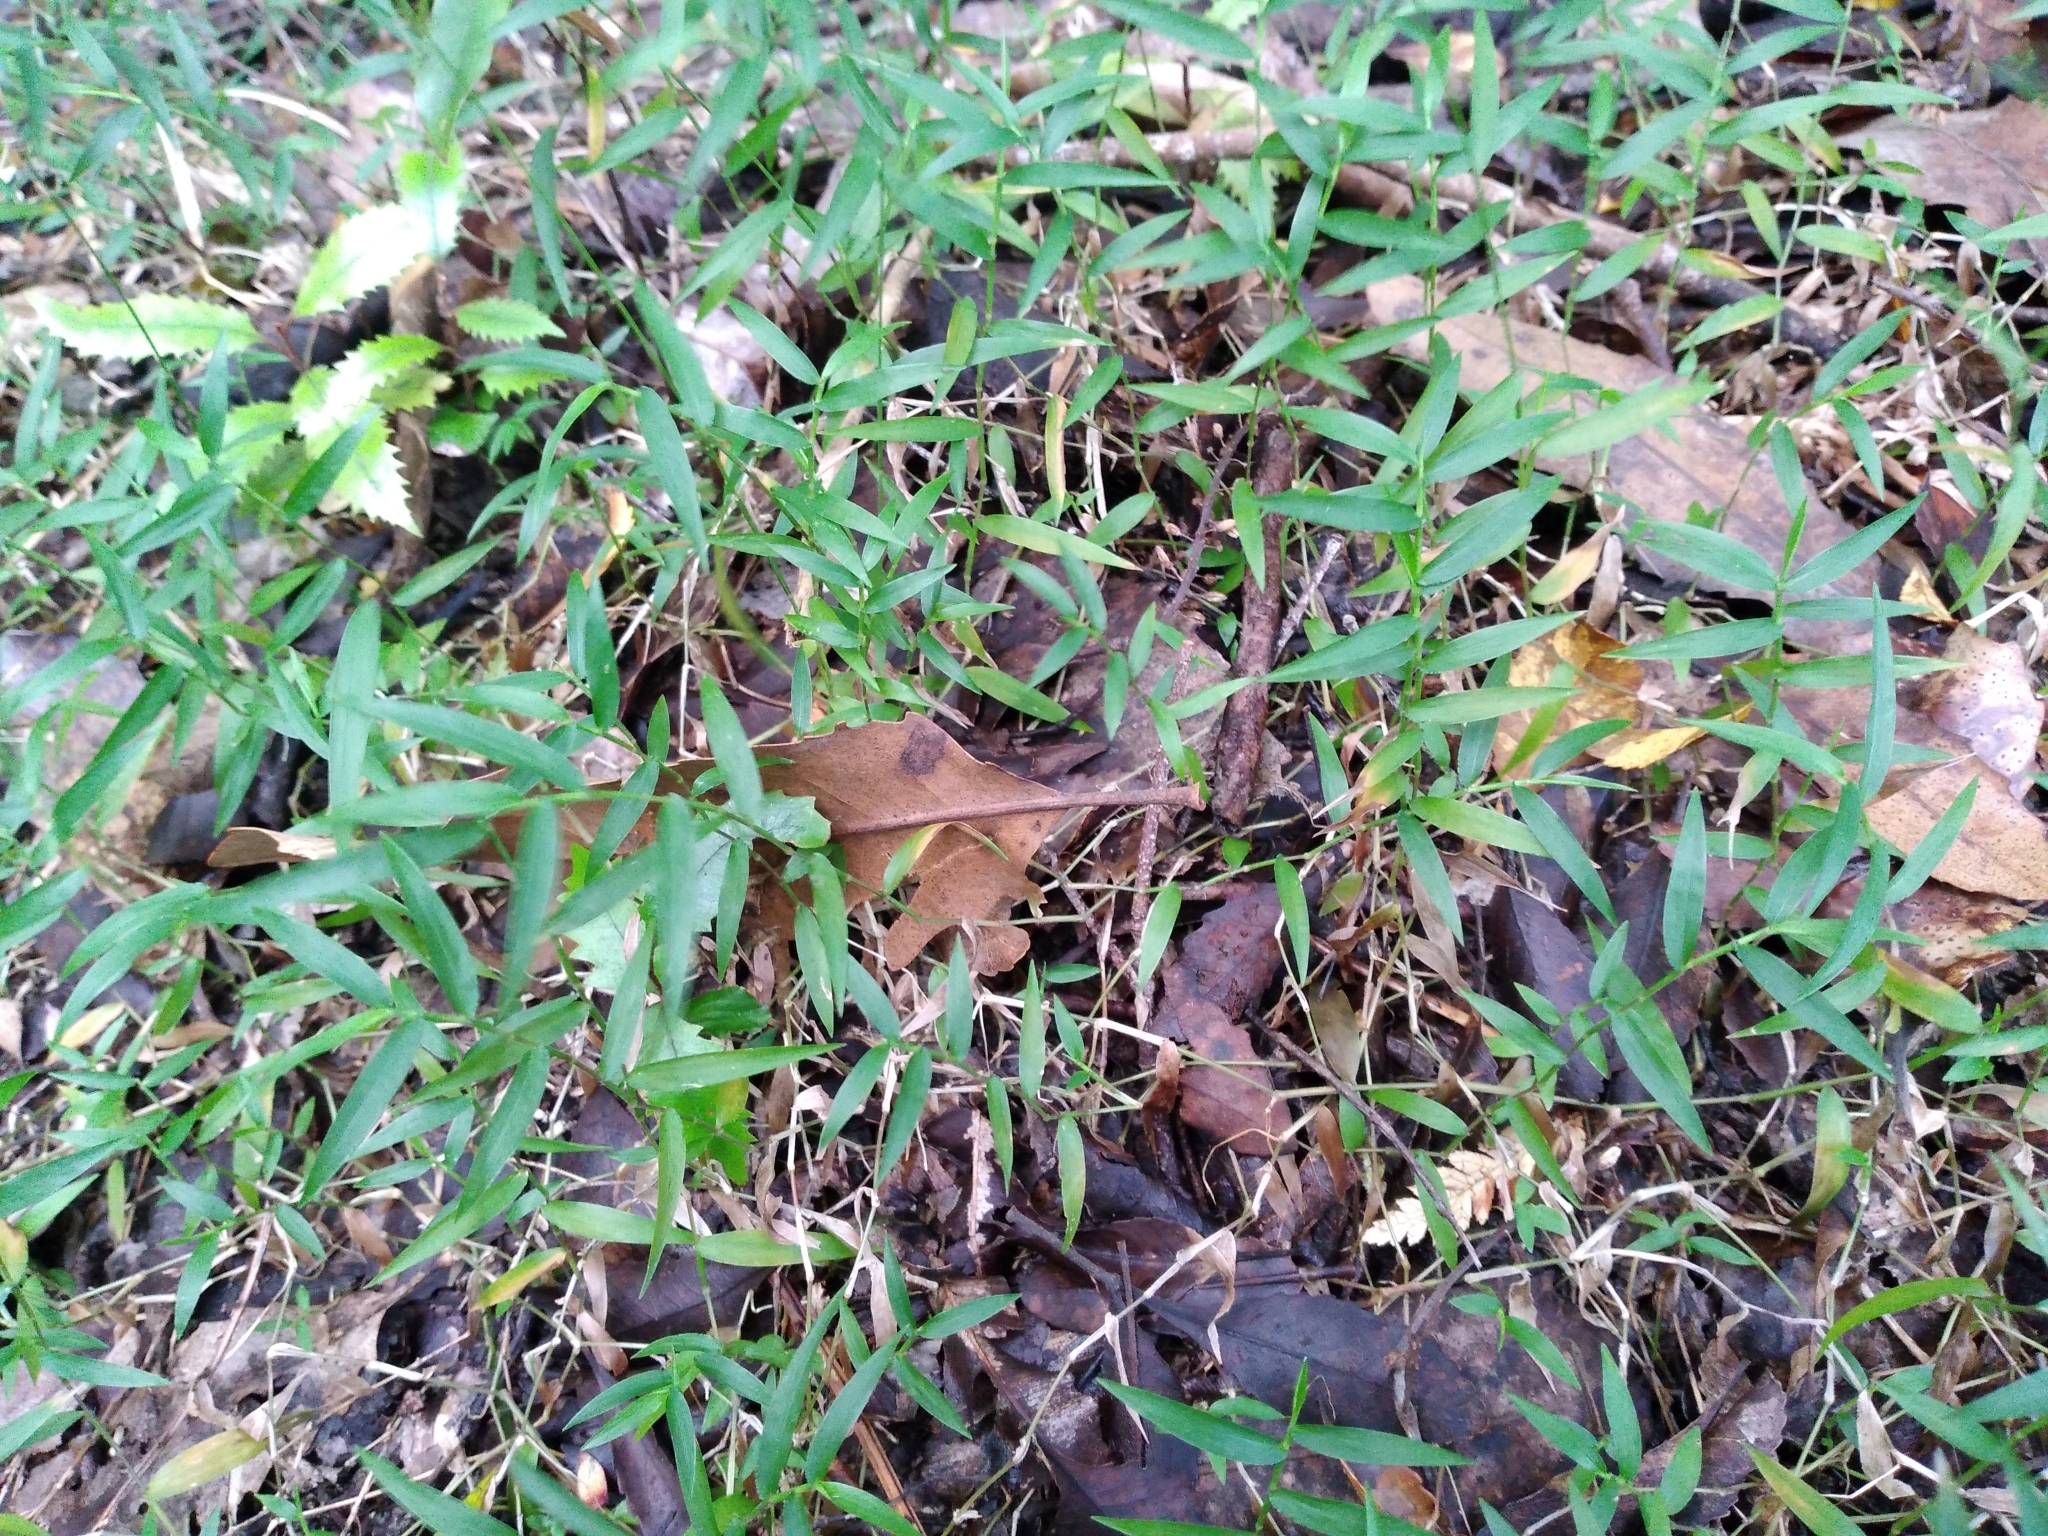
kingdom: Plantae
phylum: Tracheophyta
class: Liliopsida
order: Poales
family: Poaceae
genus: Oplismenus
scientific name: Oplismenus hirtellus
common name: Basketgrass
